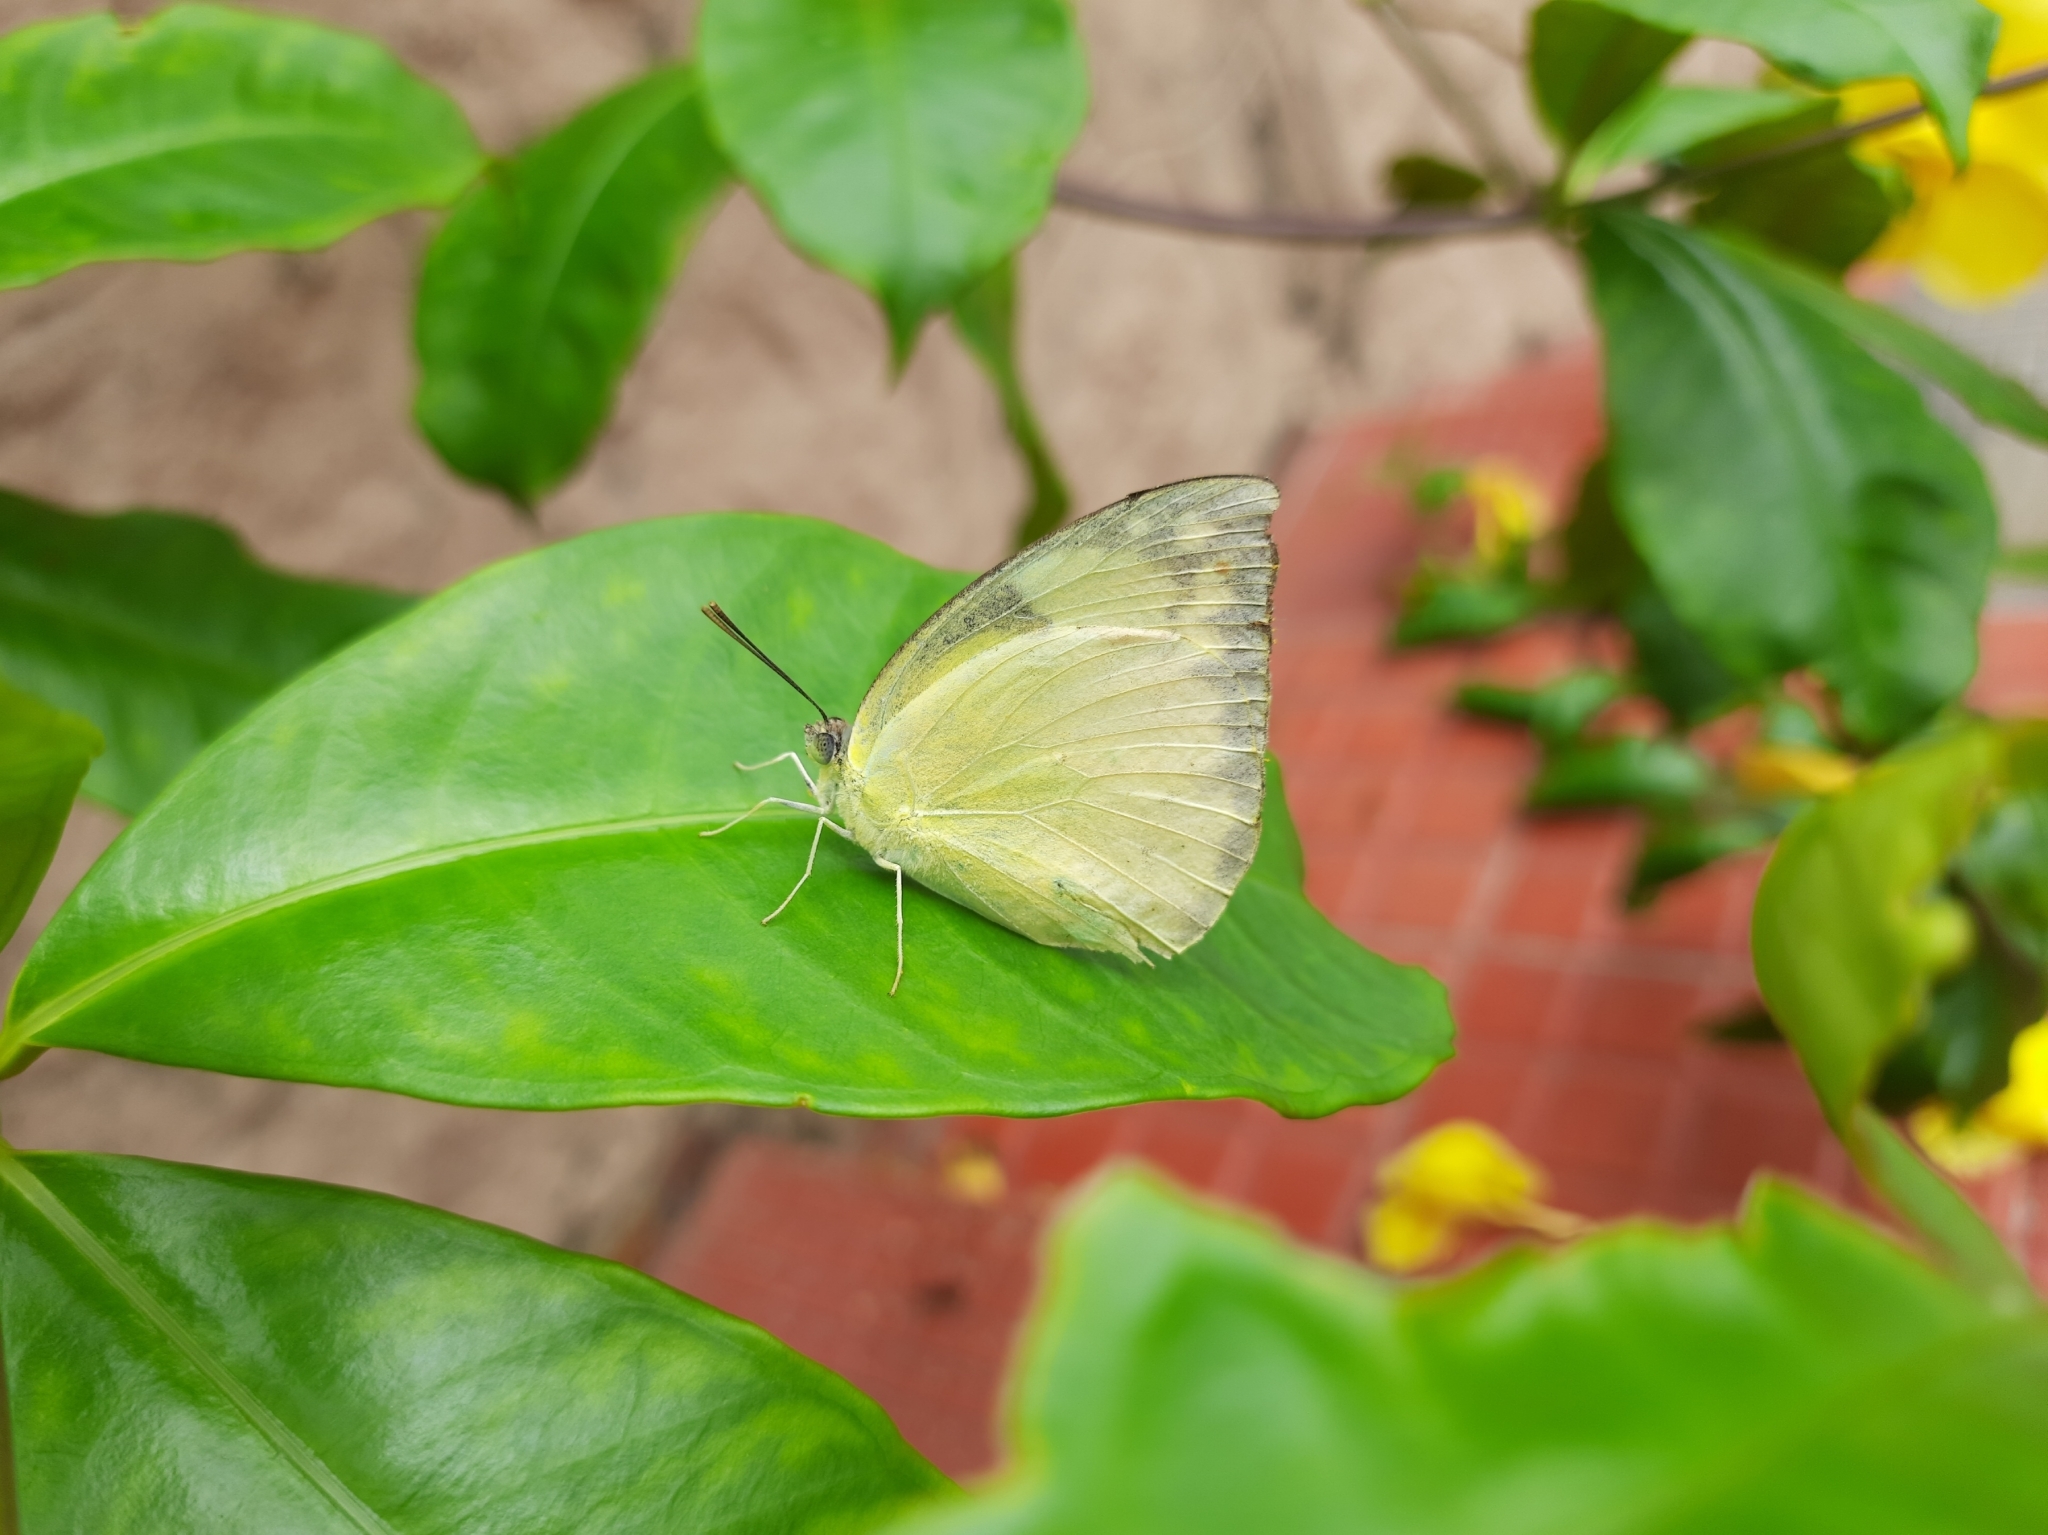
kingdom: Animalia
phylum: Arthropoda
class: Insecta
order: Lepidoptera
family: Pieridae
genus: Catopsilia
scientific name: Catopsilia pomona
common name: Common emigrant
